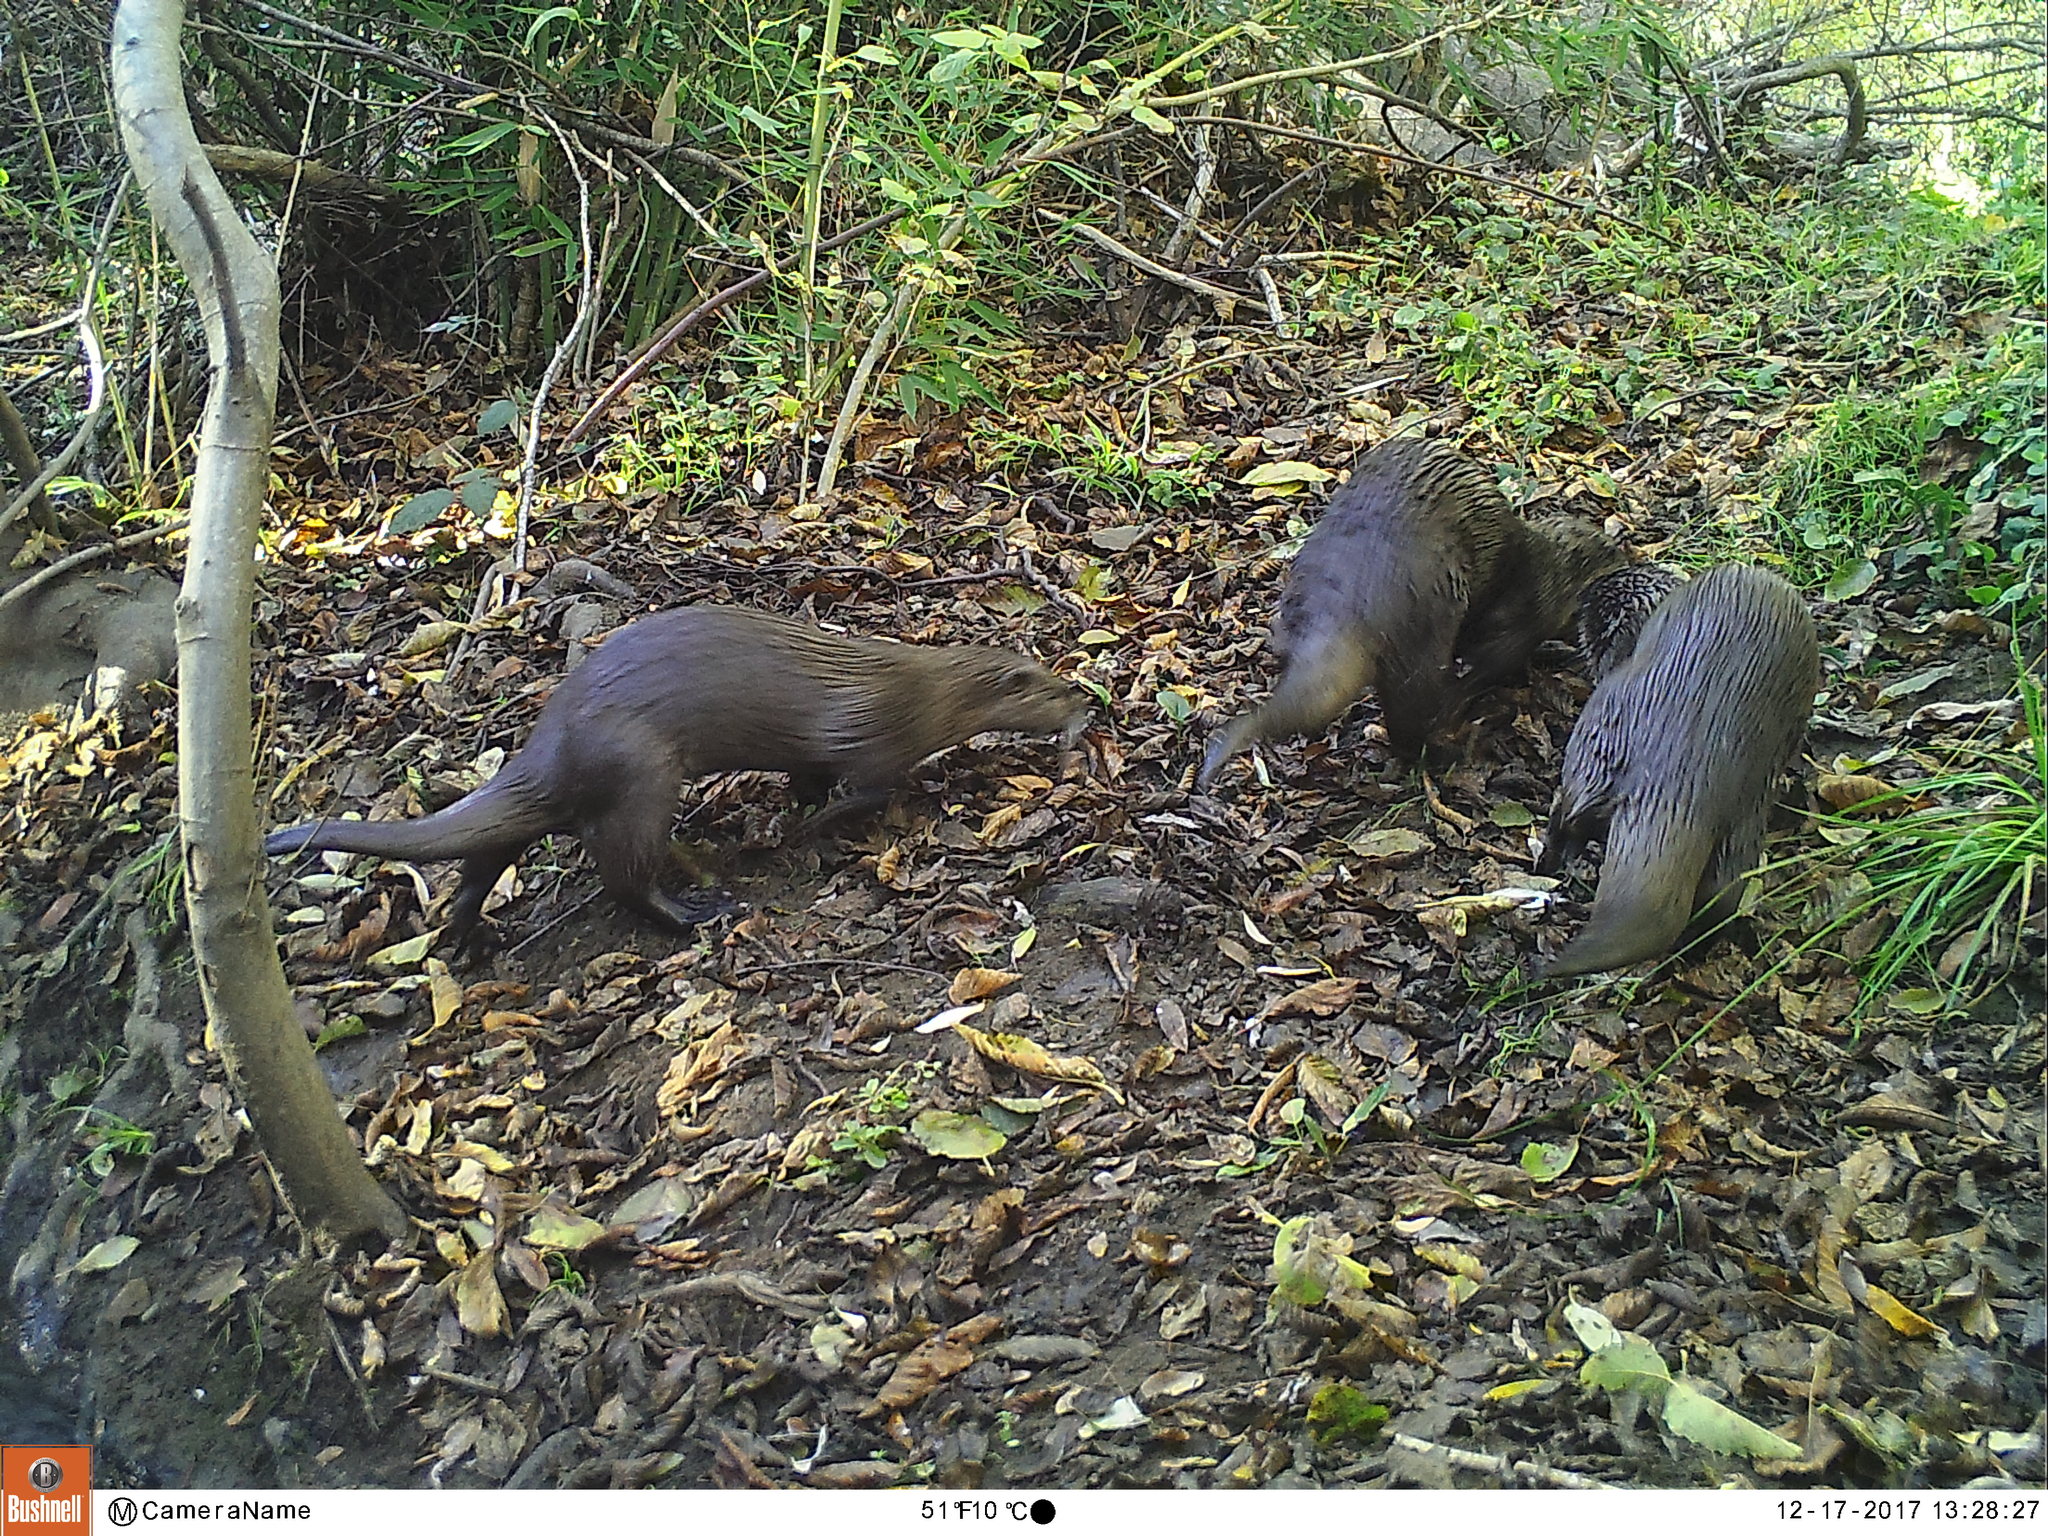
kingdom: Animalia
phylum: Chordata
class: Mammalia
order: Carnivora
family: Mustelidae
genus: Lontra
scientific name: Lontra canadensis
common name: North american river otter
